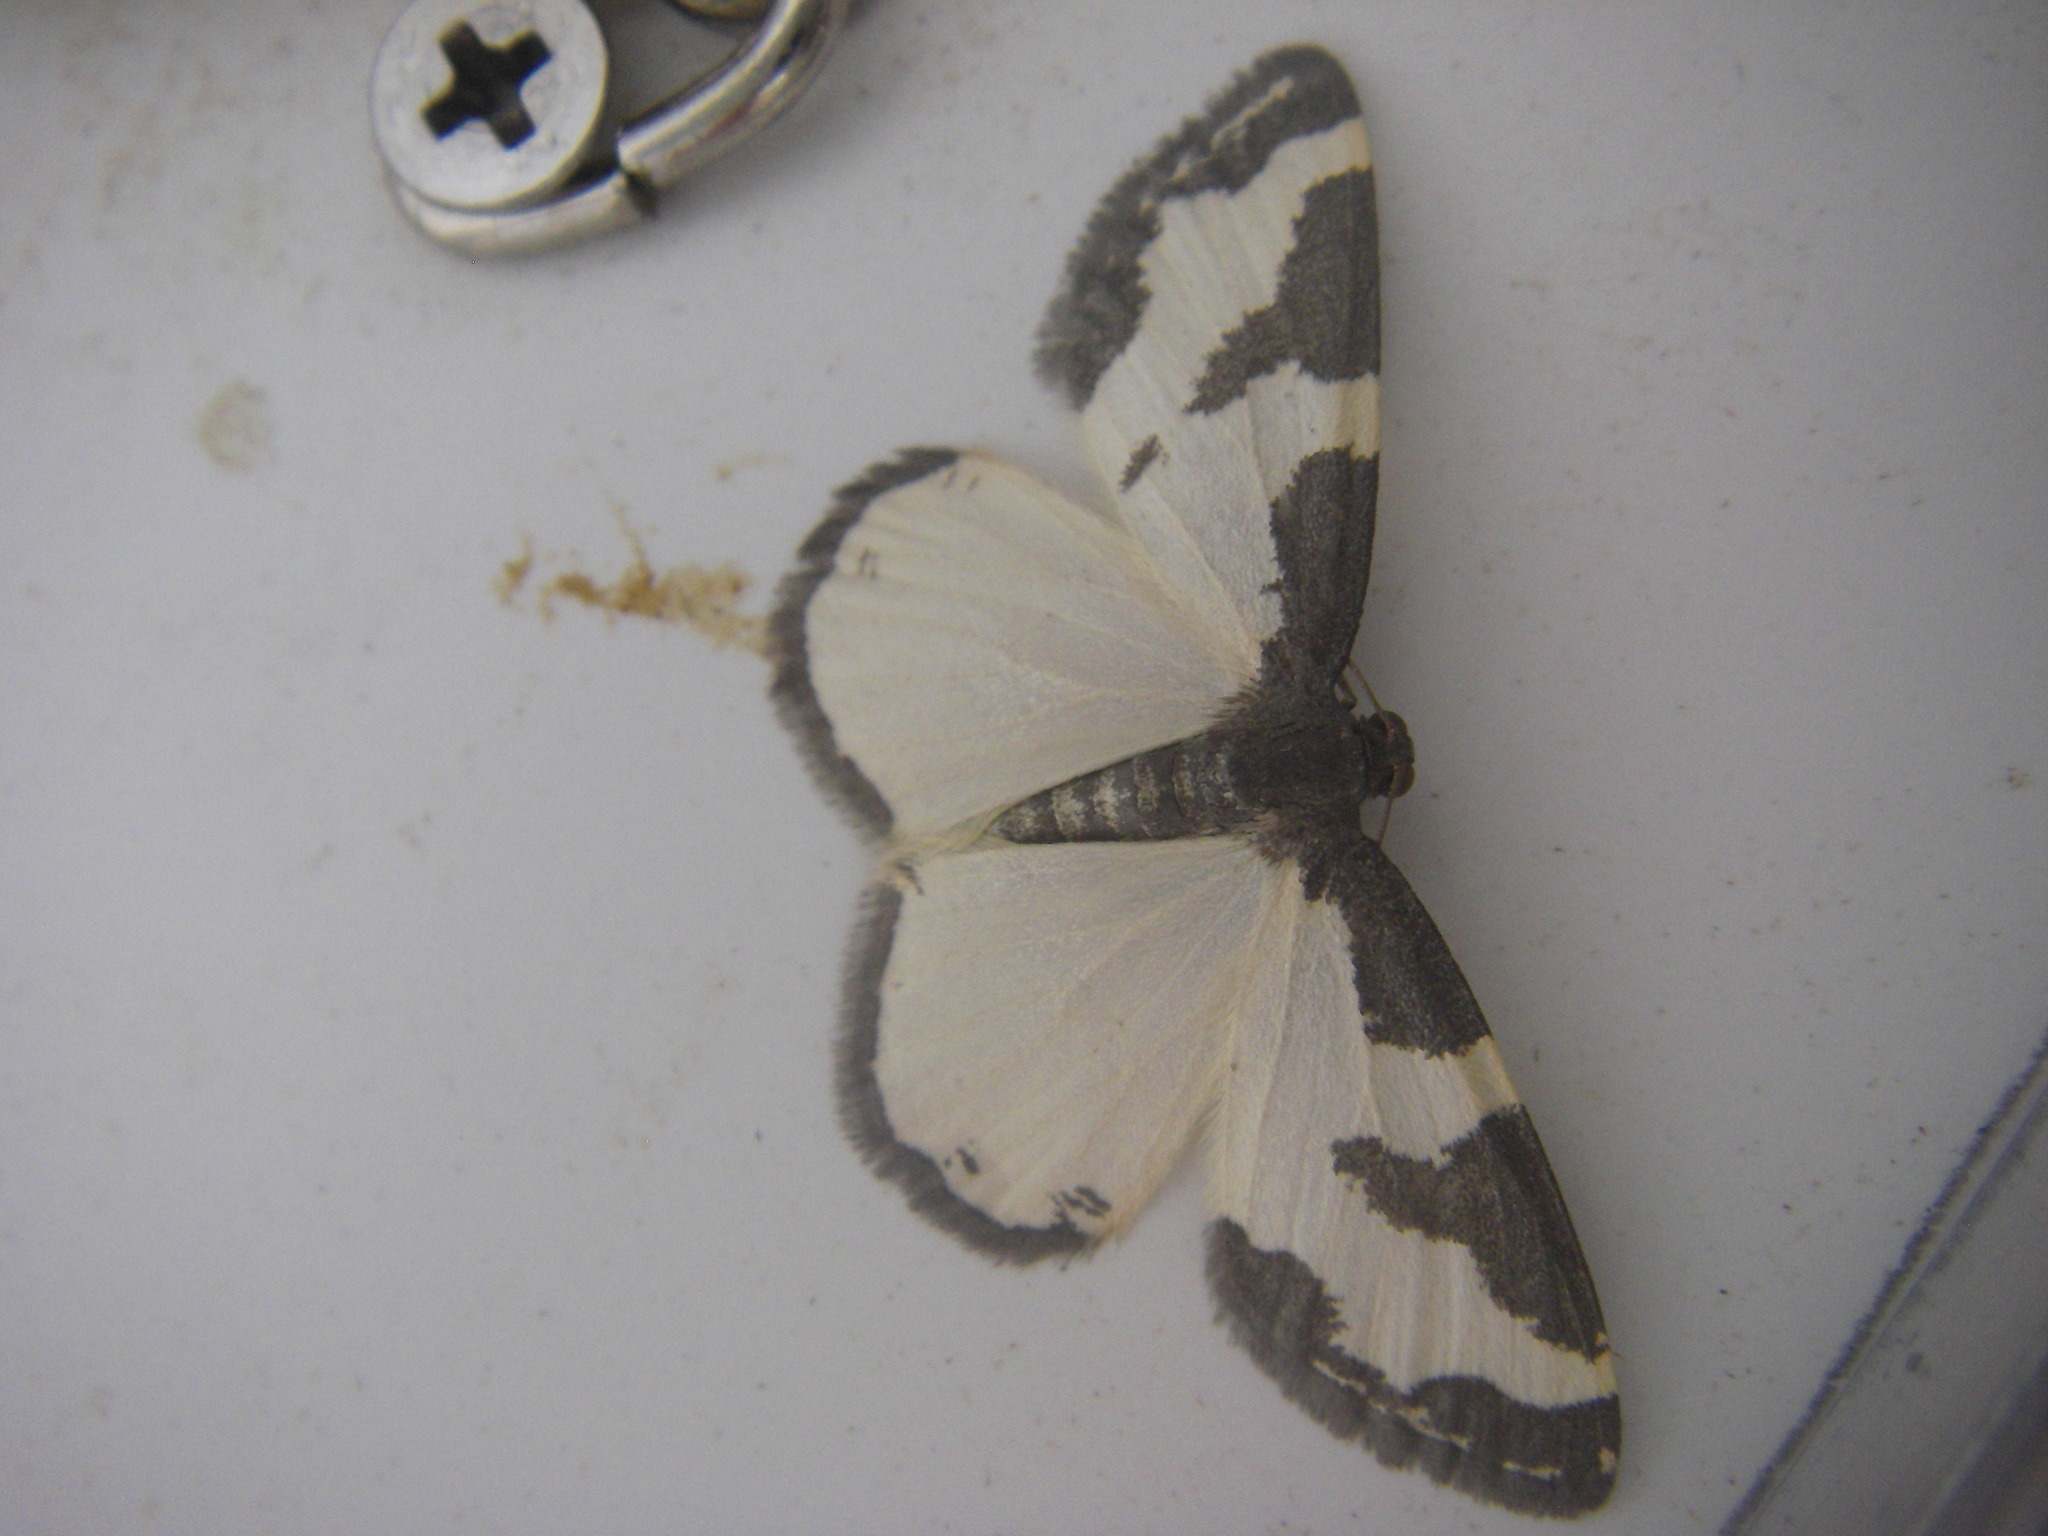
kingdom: Animalia
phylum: Arthropoda
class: Insecta
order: Lepidoptera
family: Geometridae
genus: Lomaspilis
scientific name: Lomaspilis marginata
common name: Clouded border
